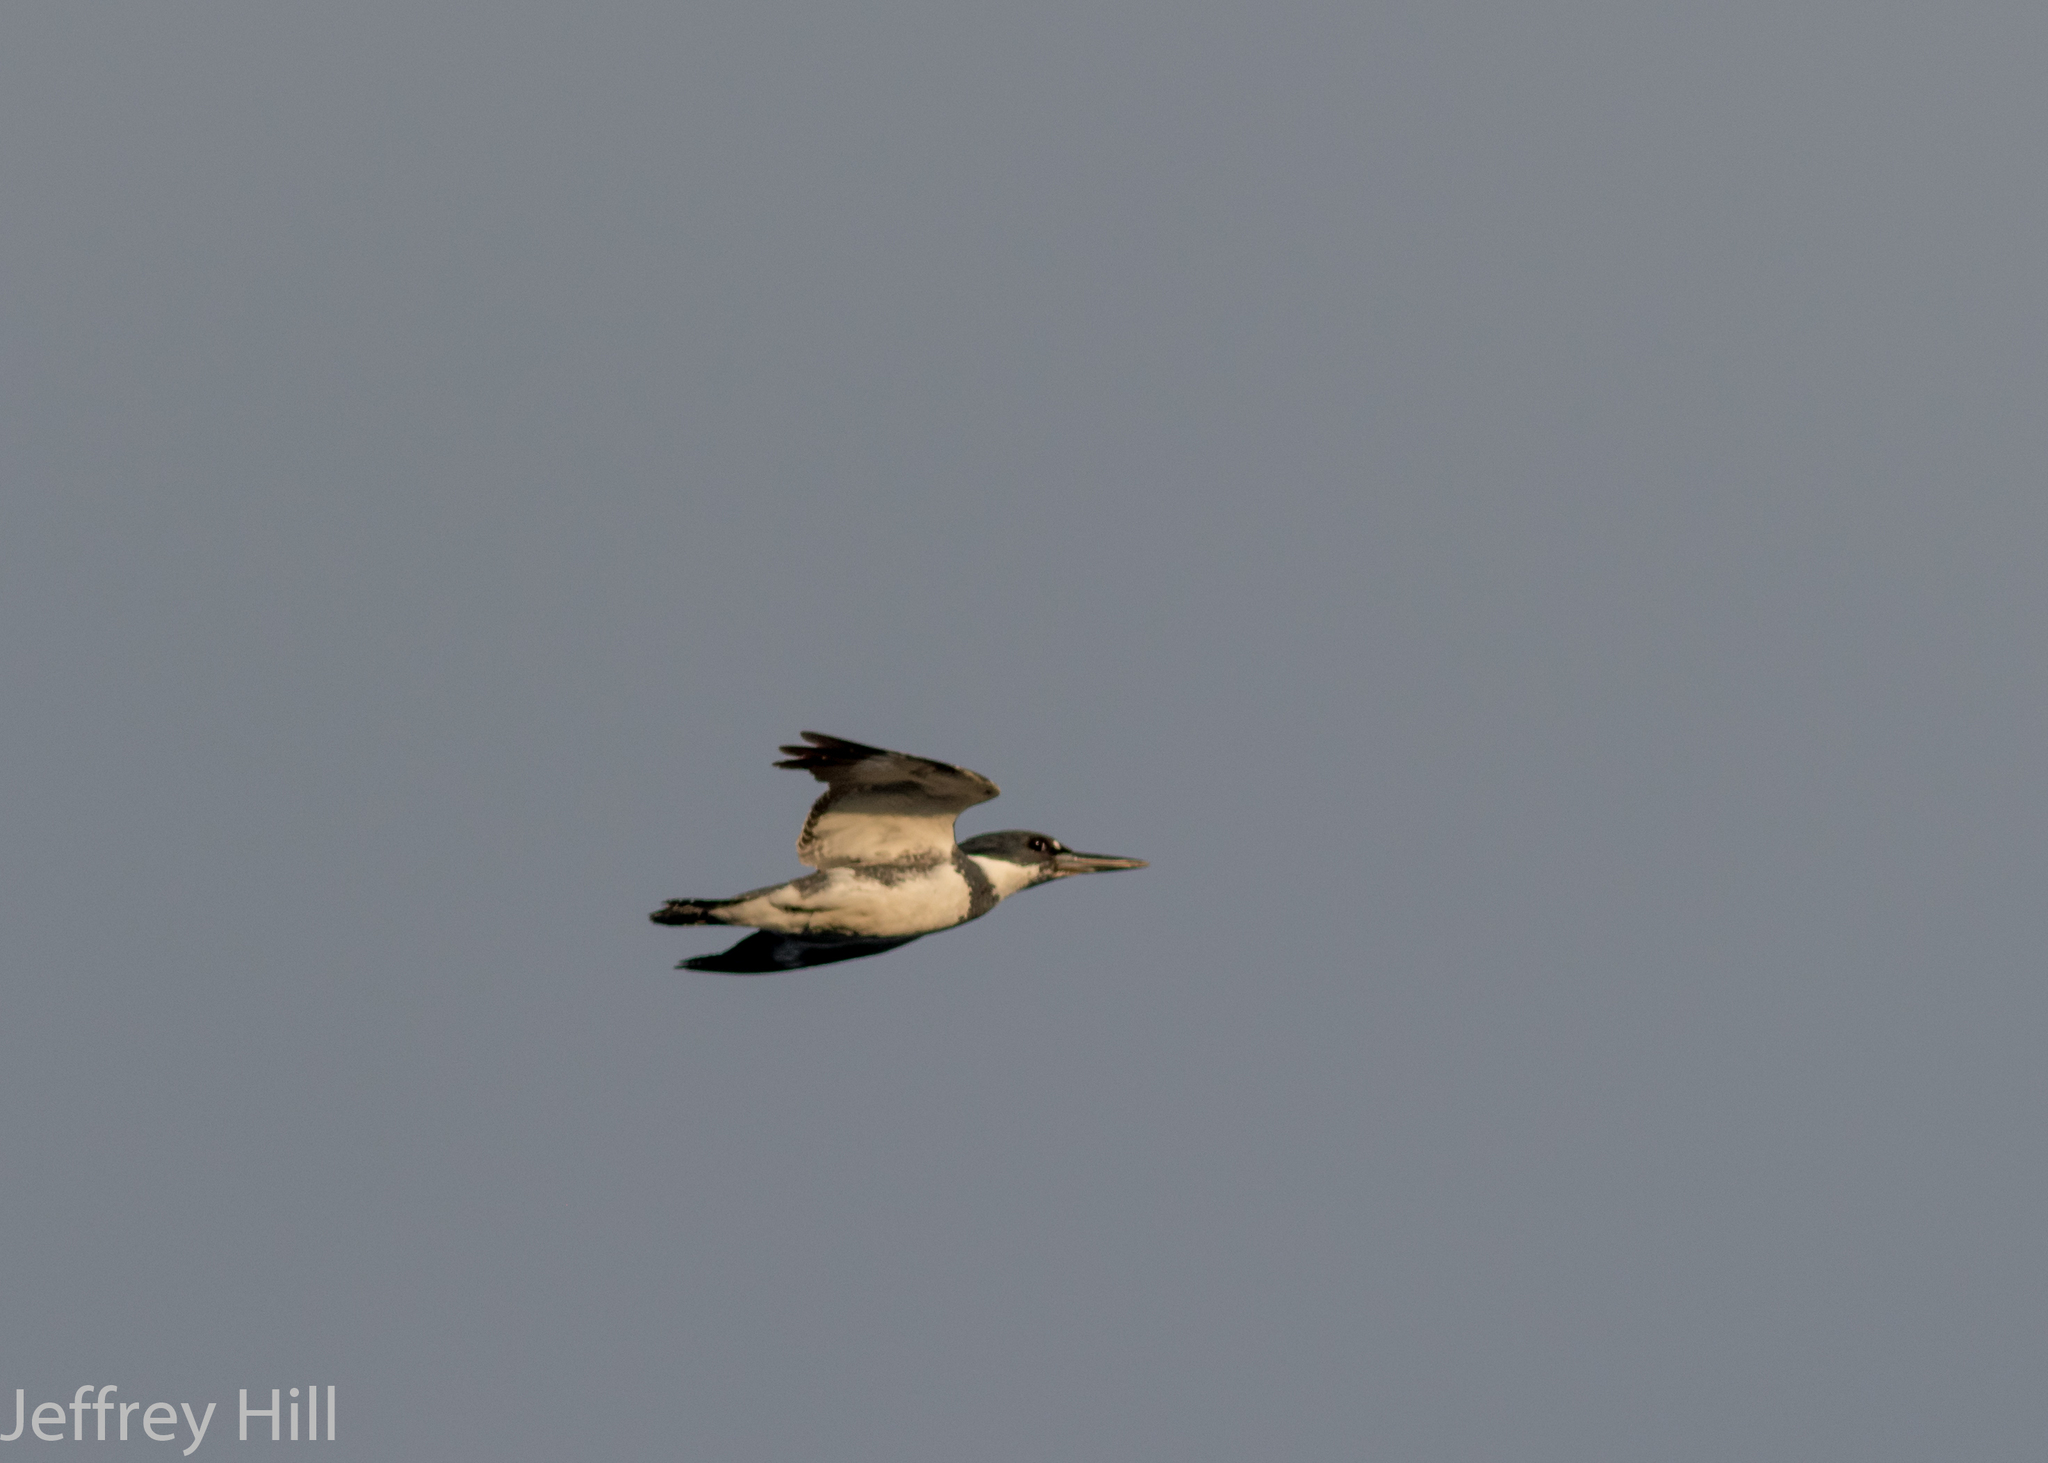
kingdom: Animalia
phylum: Chordata
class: Aves
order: Coraciiformes
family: Alcedinidae
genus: Megaceryle
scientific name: Megaceryle alcyon
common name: Belted kingfisher
